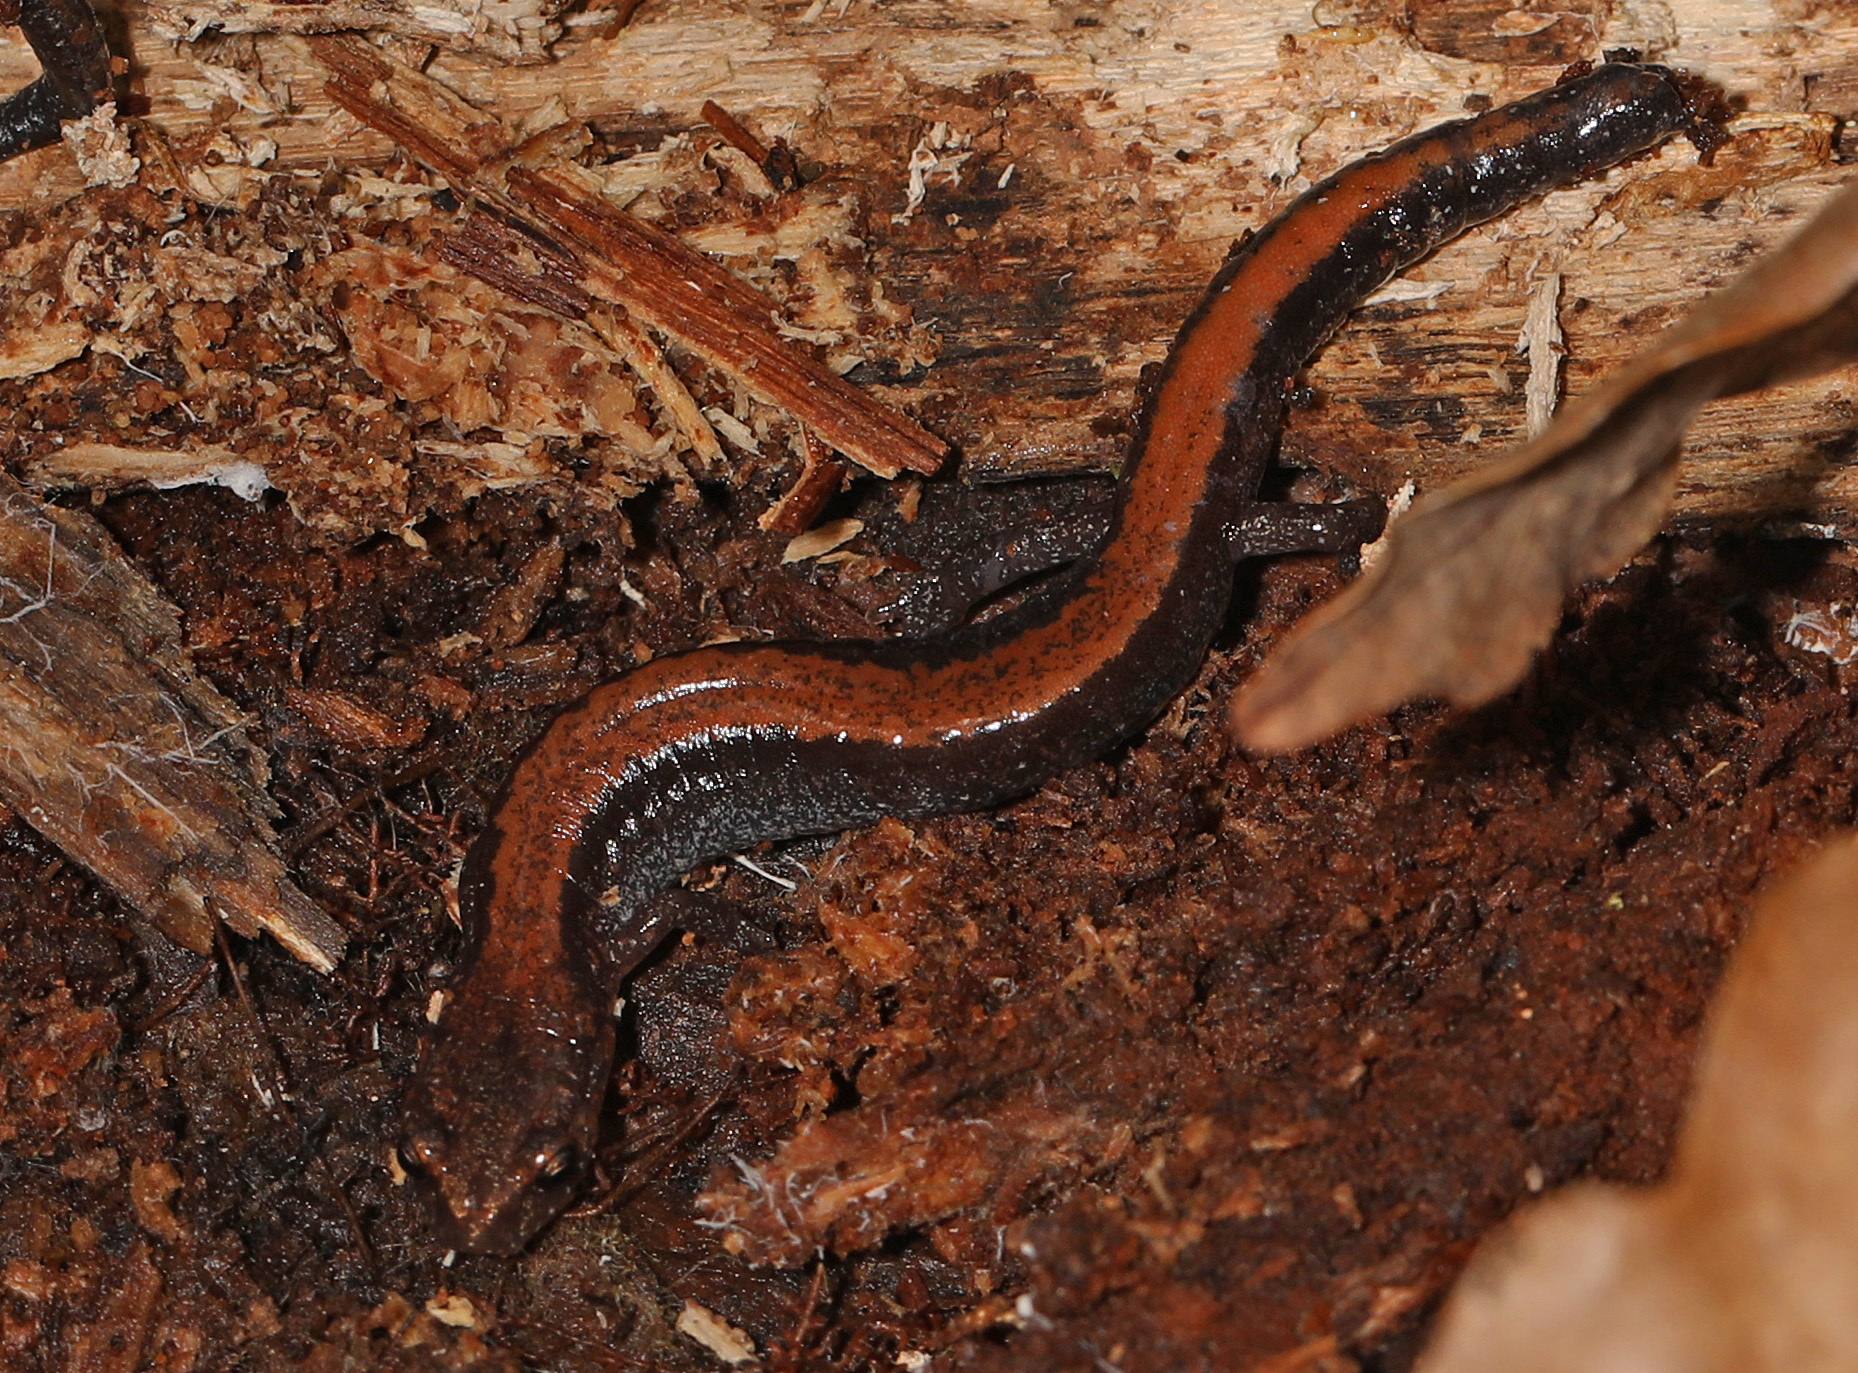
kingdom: Animalia
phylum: Chordata
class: Amphibia
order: Caudata
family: Plethodontidae
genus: Plethodon
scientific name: Plethodon cinereus
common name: Redback salamander
